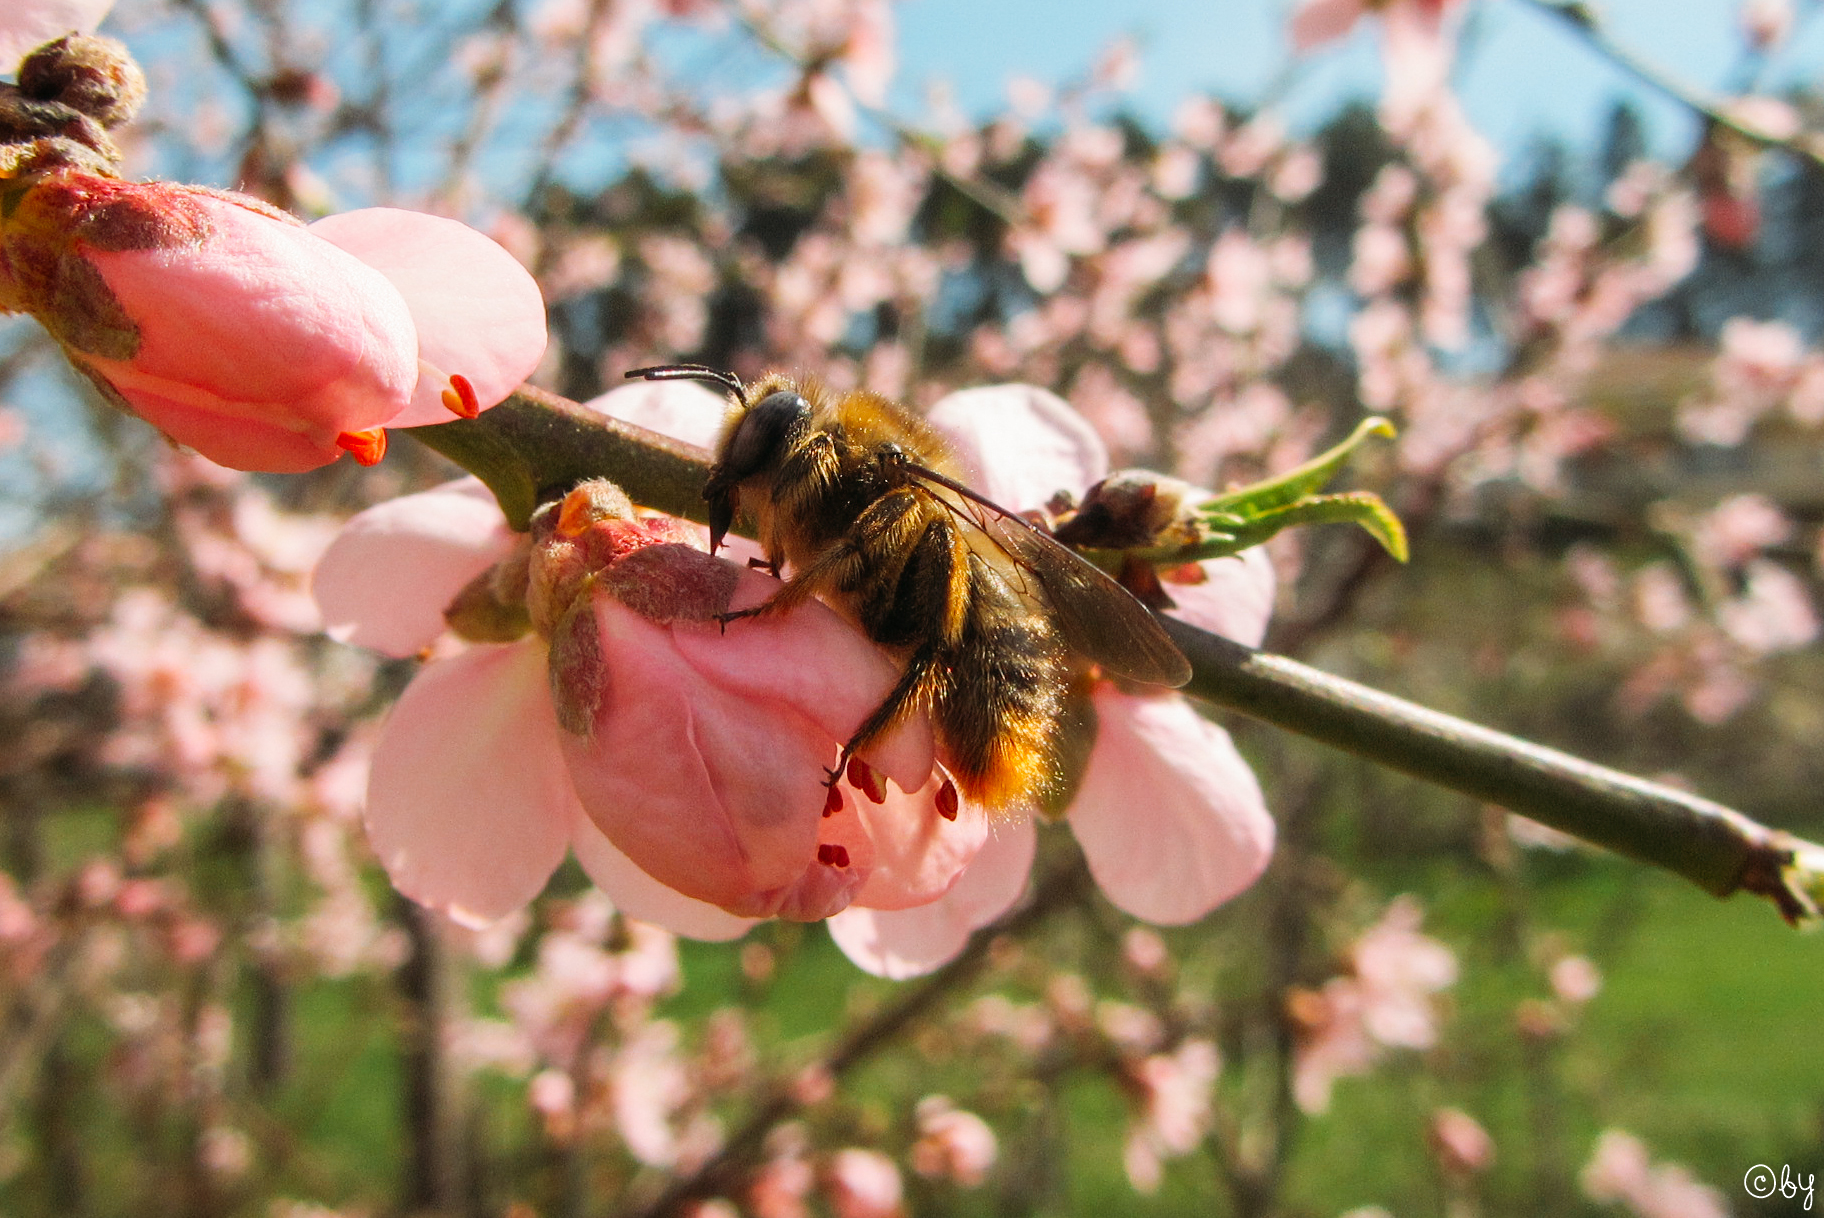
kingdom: Animalia
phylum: Arthropoda
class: Insecta
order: Hymenoptera
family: Apidae
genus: Xylocopa
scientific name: Xylocopa cantabrita
